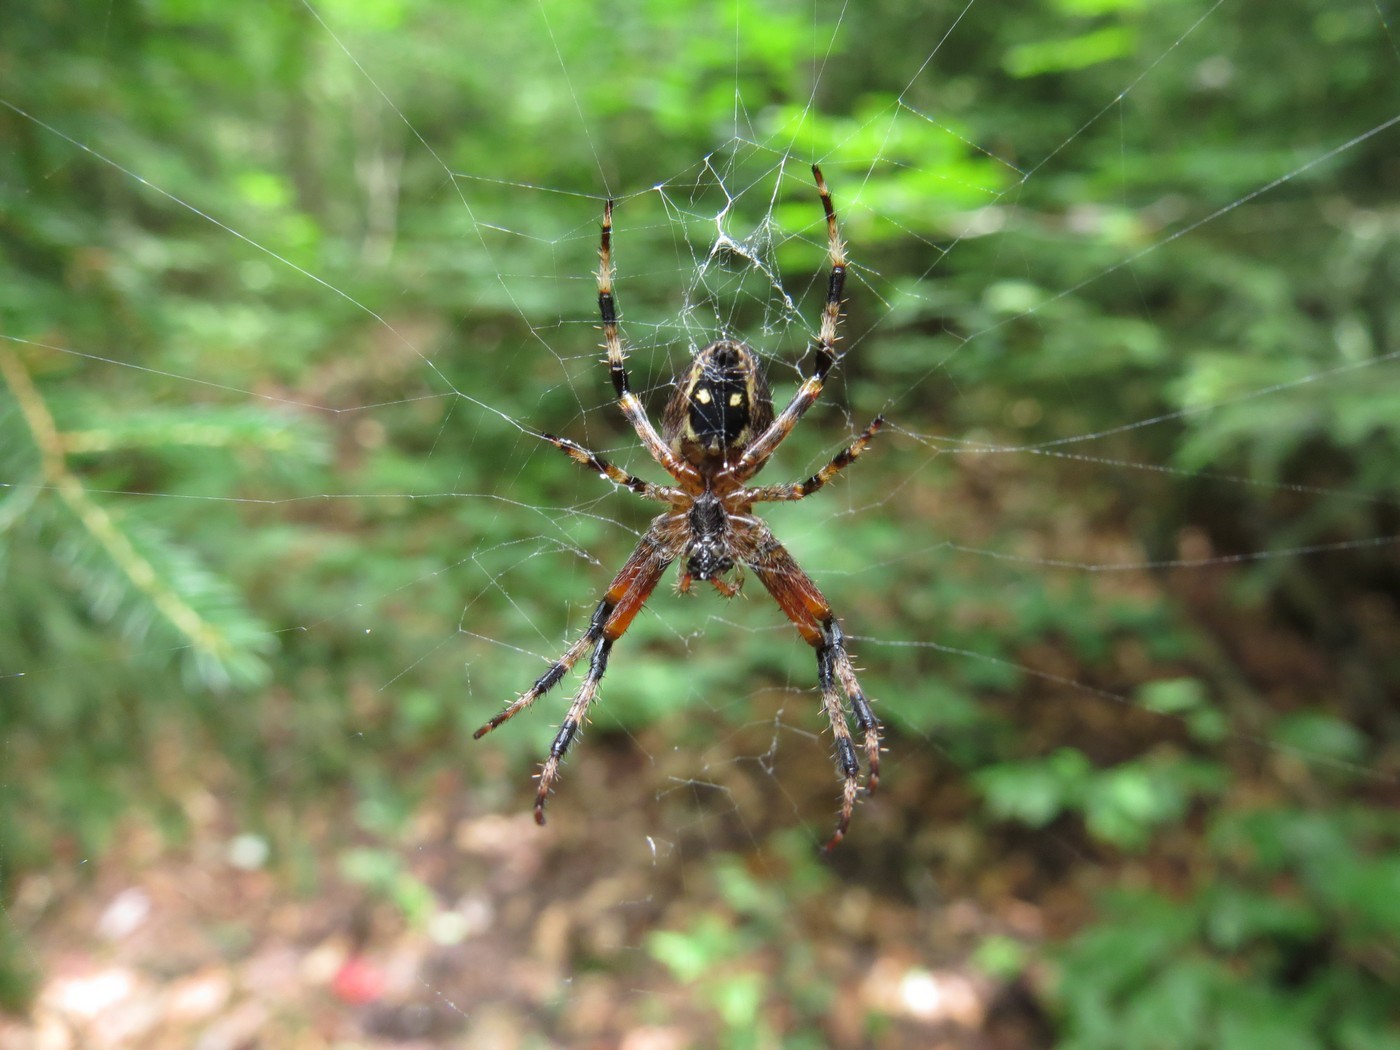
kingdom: Animalia
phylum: Arthropoda
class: Arachnida
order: Araneae
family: Araneidae
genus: Araneus
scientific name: Araneus nordmanni
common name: Nordmann's orbweaver
